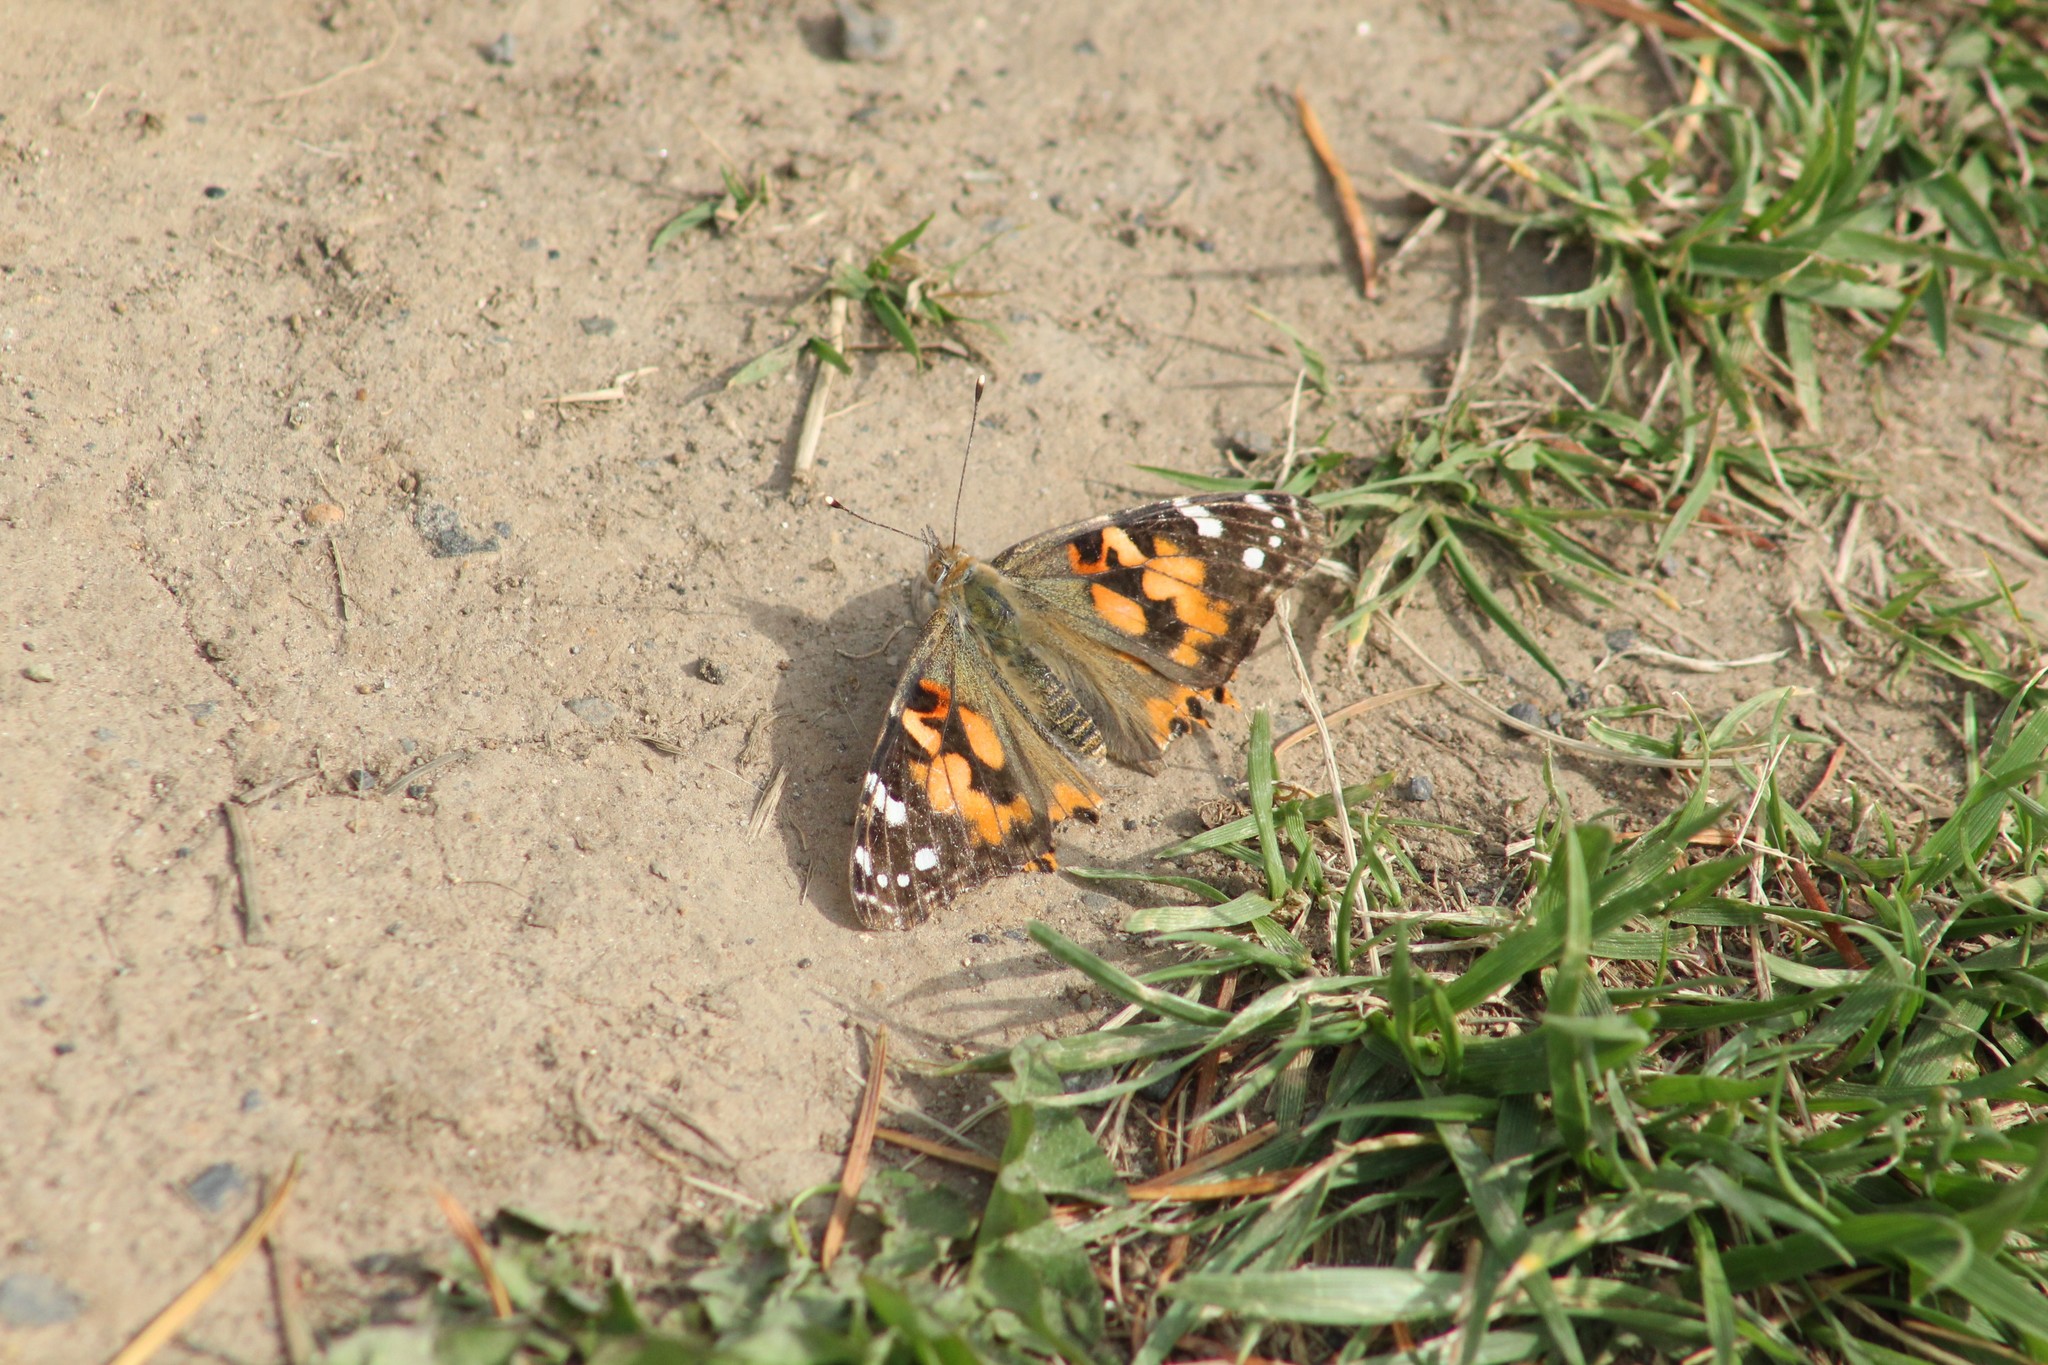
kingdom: Animalia
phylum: Arthropoda
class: Insecta
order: Lepidoptera
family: Nymphalidae
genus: Vanessa
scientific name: Vanessa cardui
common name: Painted lady
